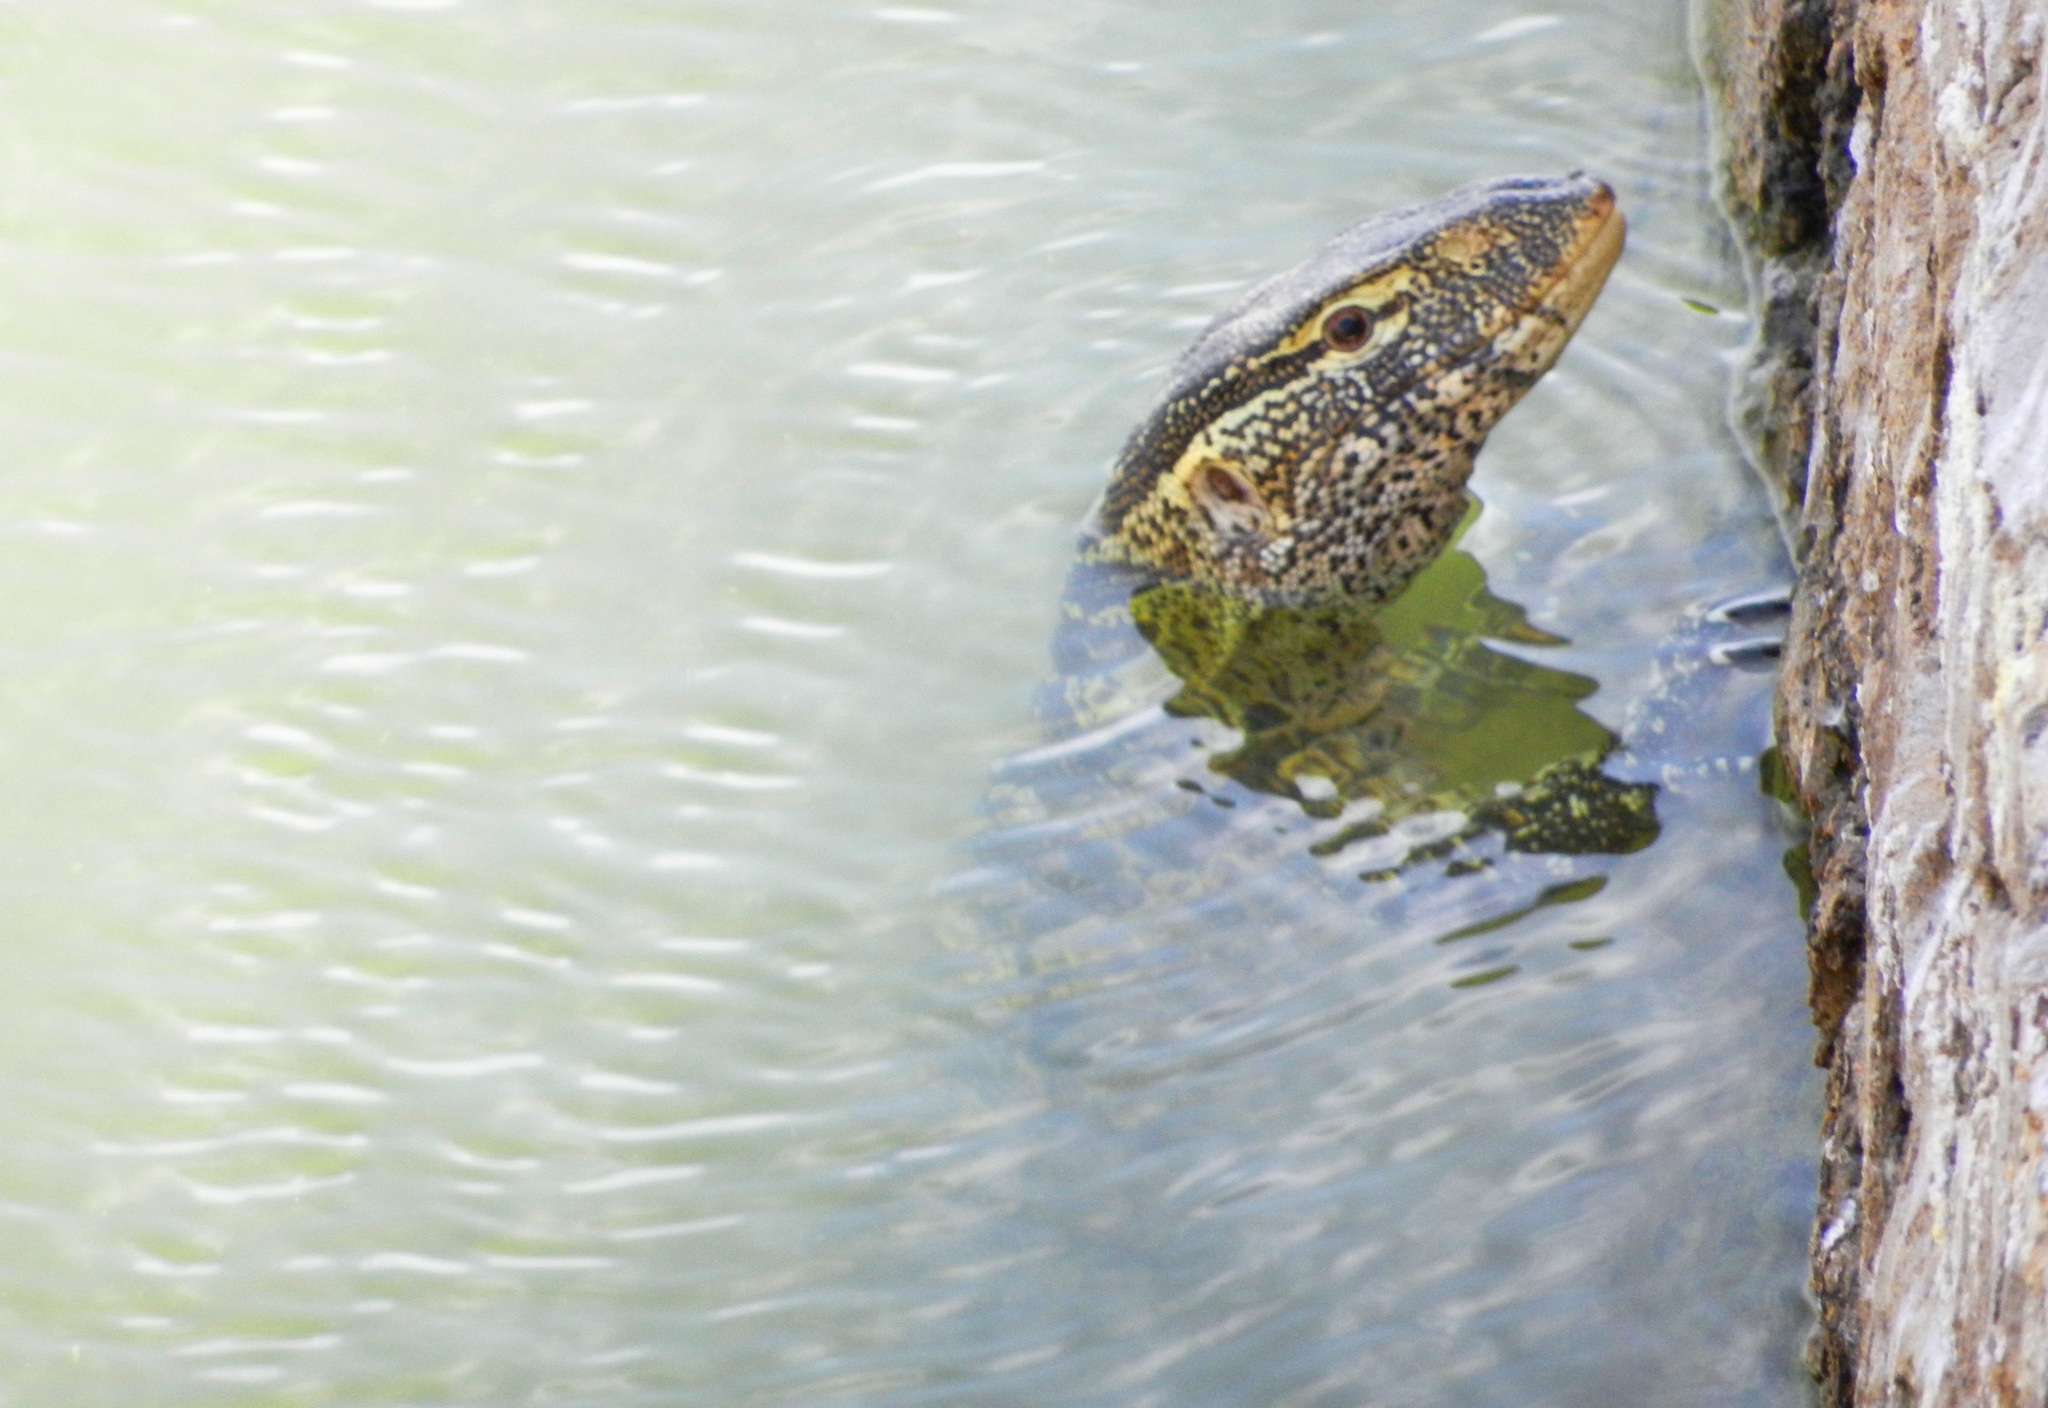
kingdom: Animalia
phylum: Chordata
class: Squamata
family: Varanidae
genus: Varanus
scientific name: Varanus niloticus
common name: Nile monitor
